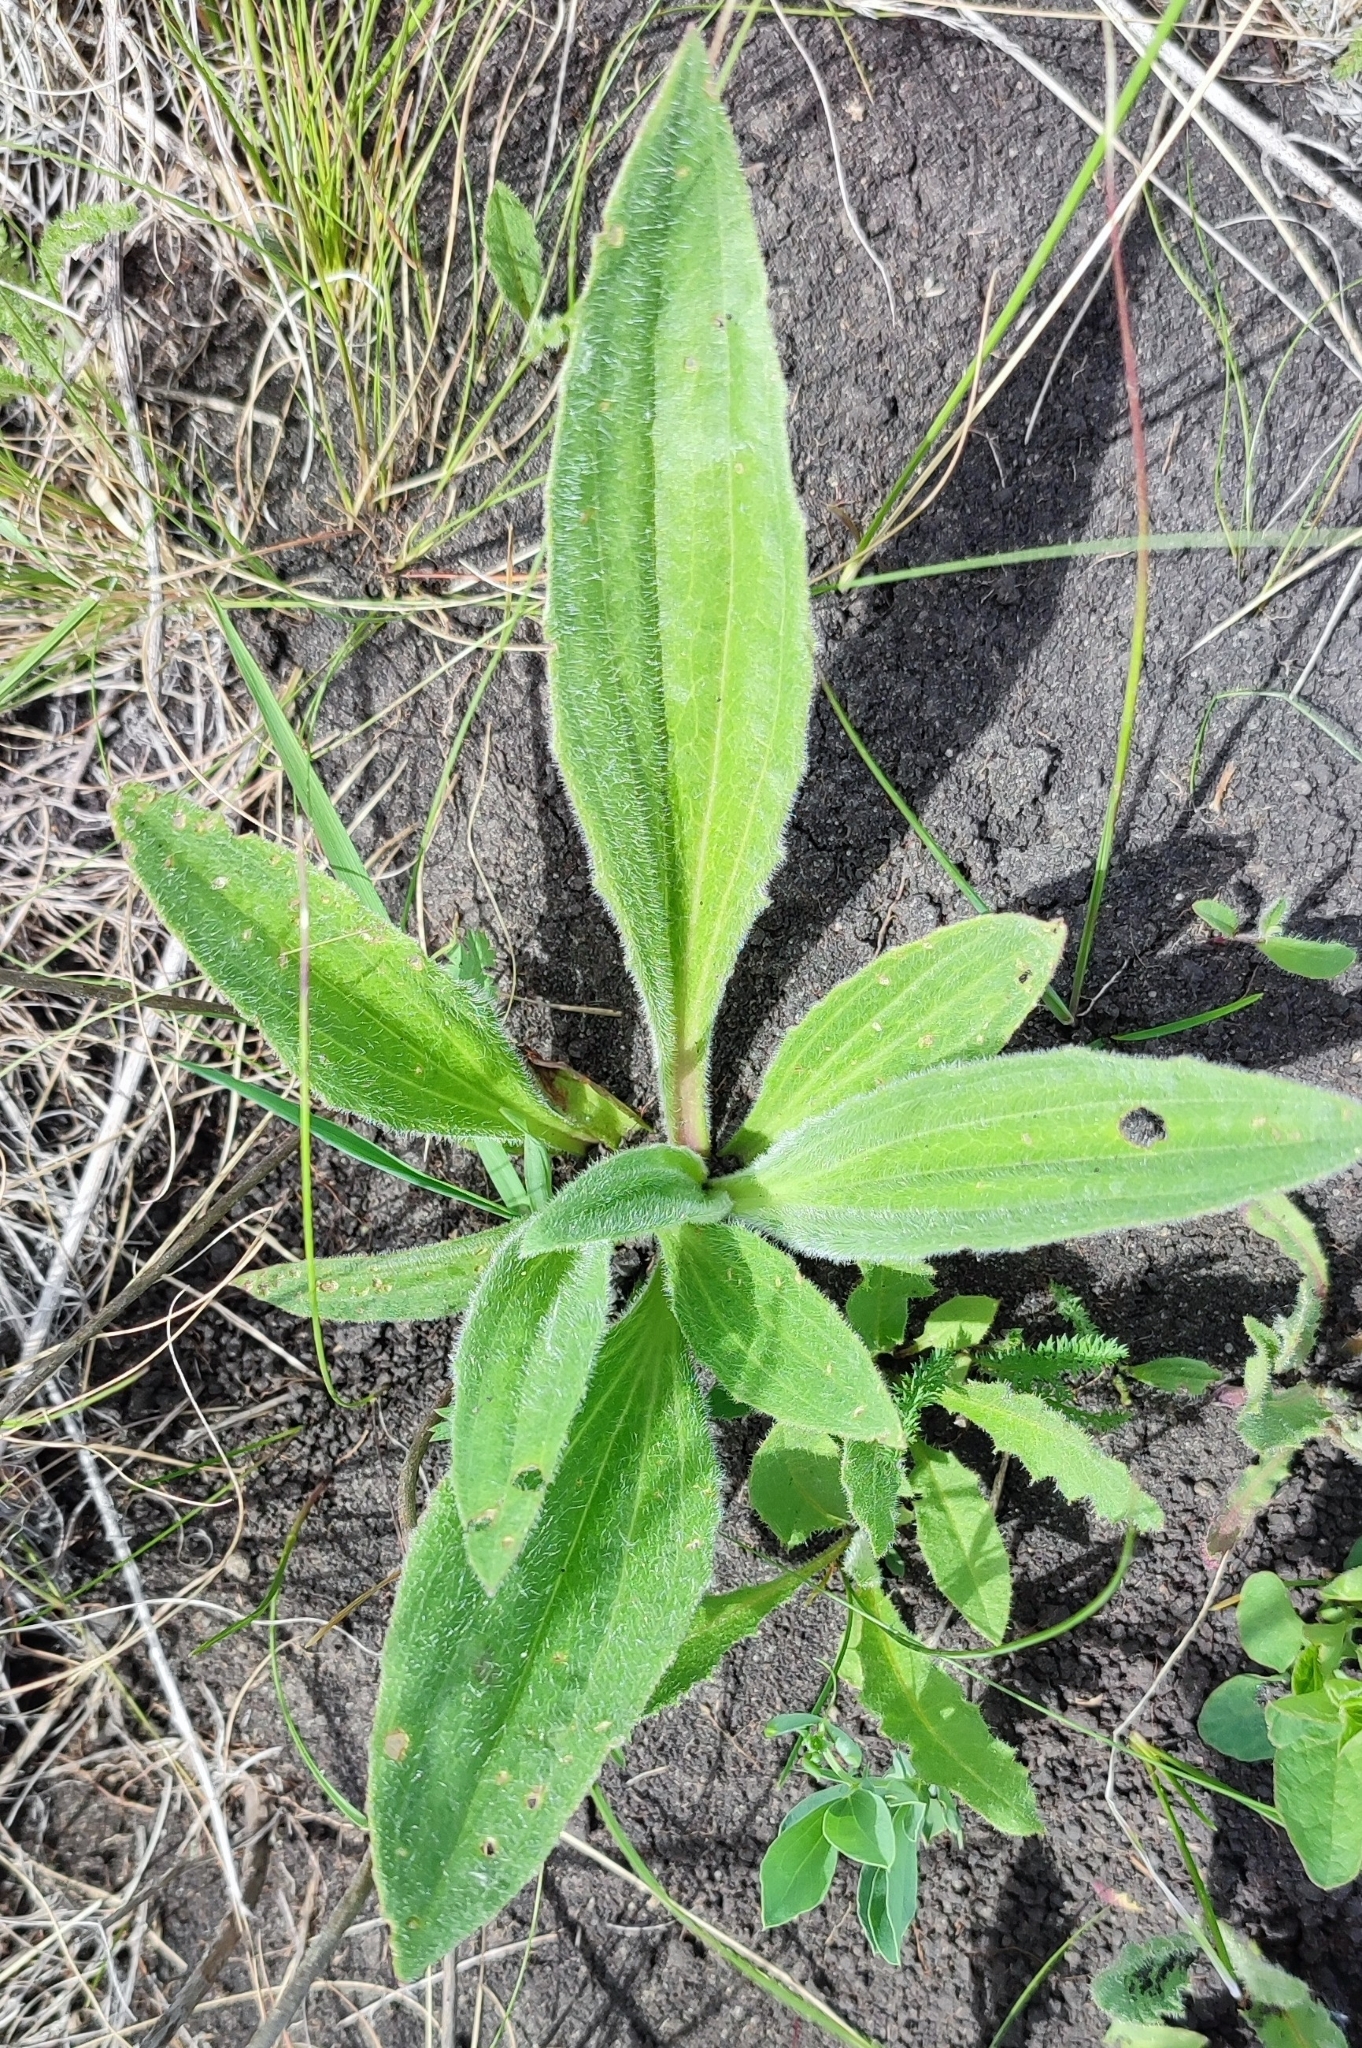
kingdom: Plantae
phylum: Tracheophyta
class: Magnoliopsida
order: Lamiales
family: Plantaginaceae
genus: Plantago
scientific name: Plantago urvillei
